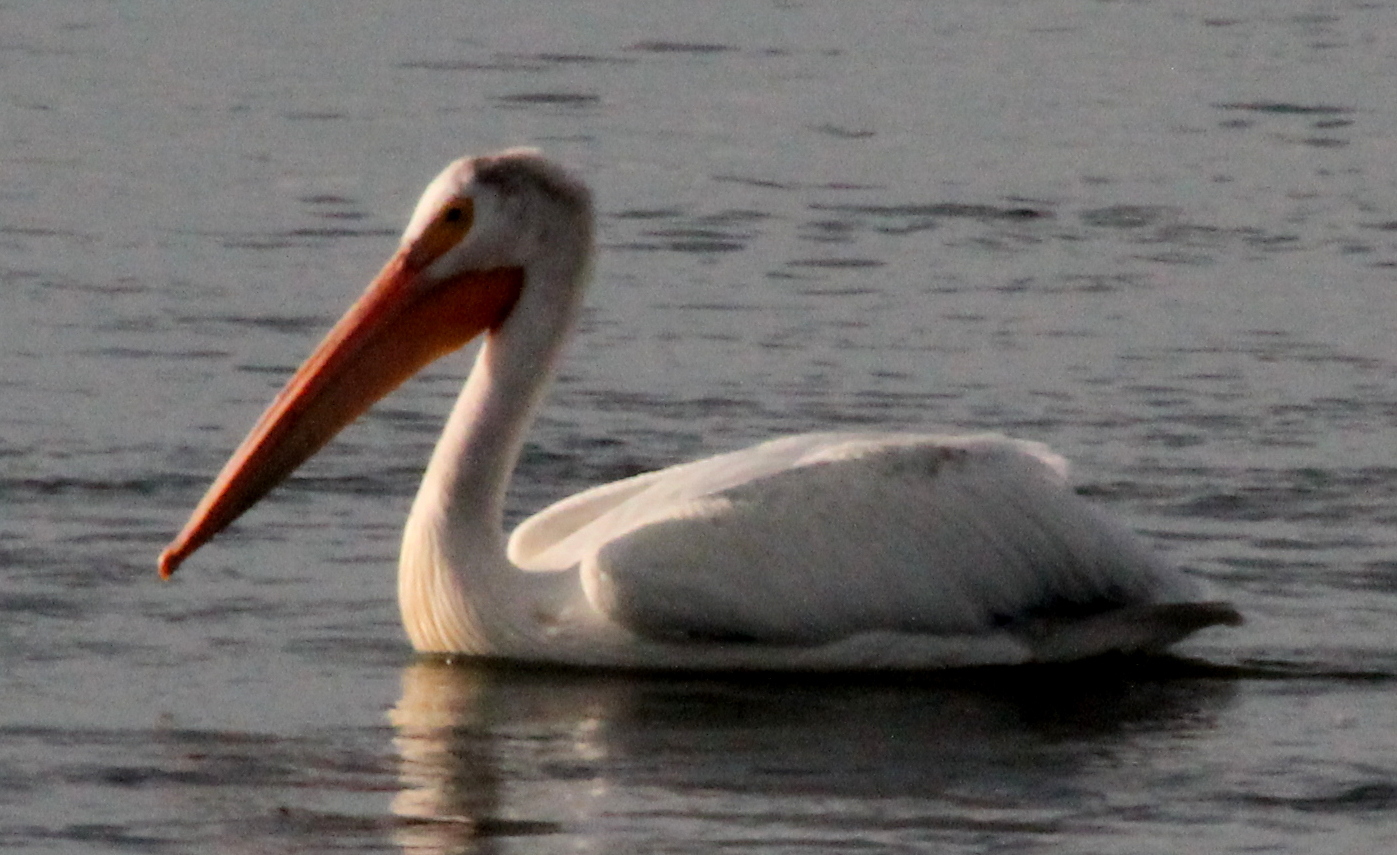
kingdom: Animalia
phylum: Chordata
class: Aves
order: Pelecaniformes
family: Pelecanidae
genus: Pelecanus
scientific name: Pelecanus erythrorhynchos
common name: American white pelican
